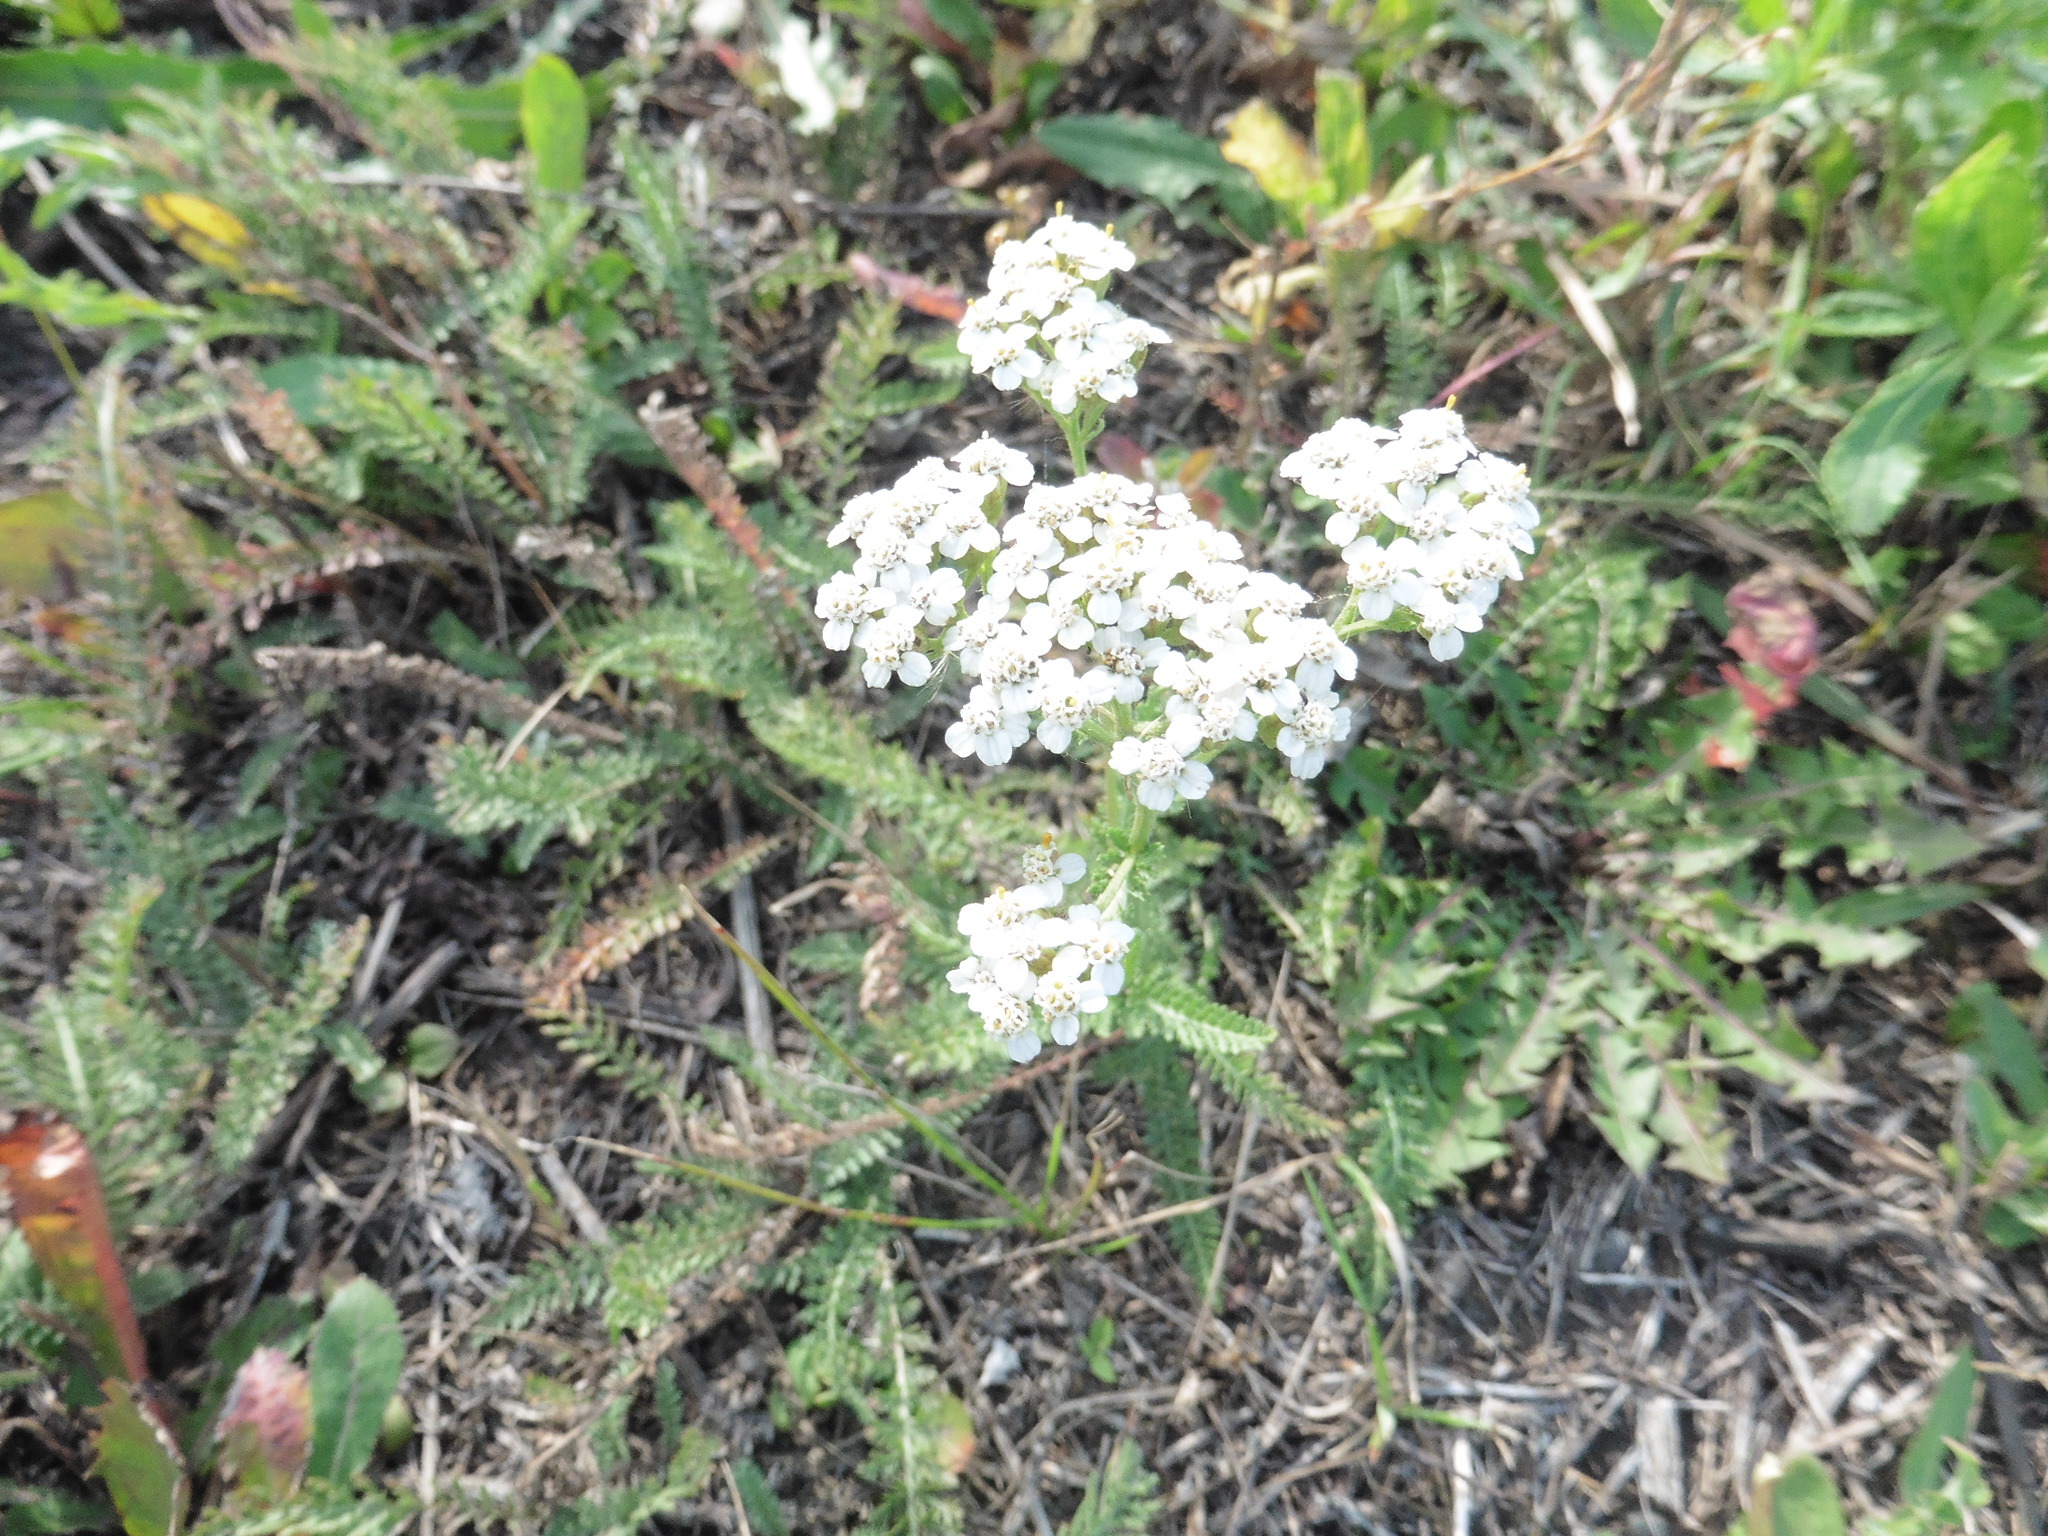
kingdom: Plantae
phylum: Tracheophyta
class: Magnoliopsida
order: Asterales
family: Asteraceae
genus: Achillea
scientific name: Achillea millefolium
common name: Yarrow
